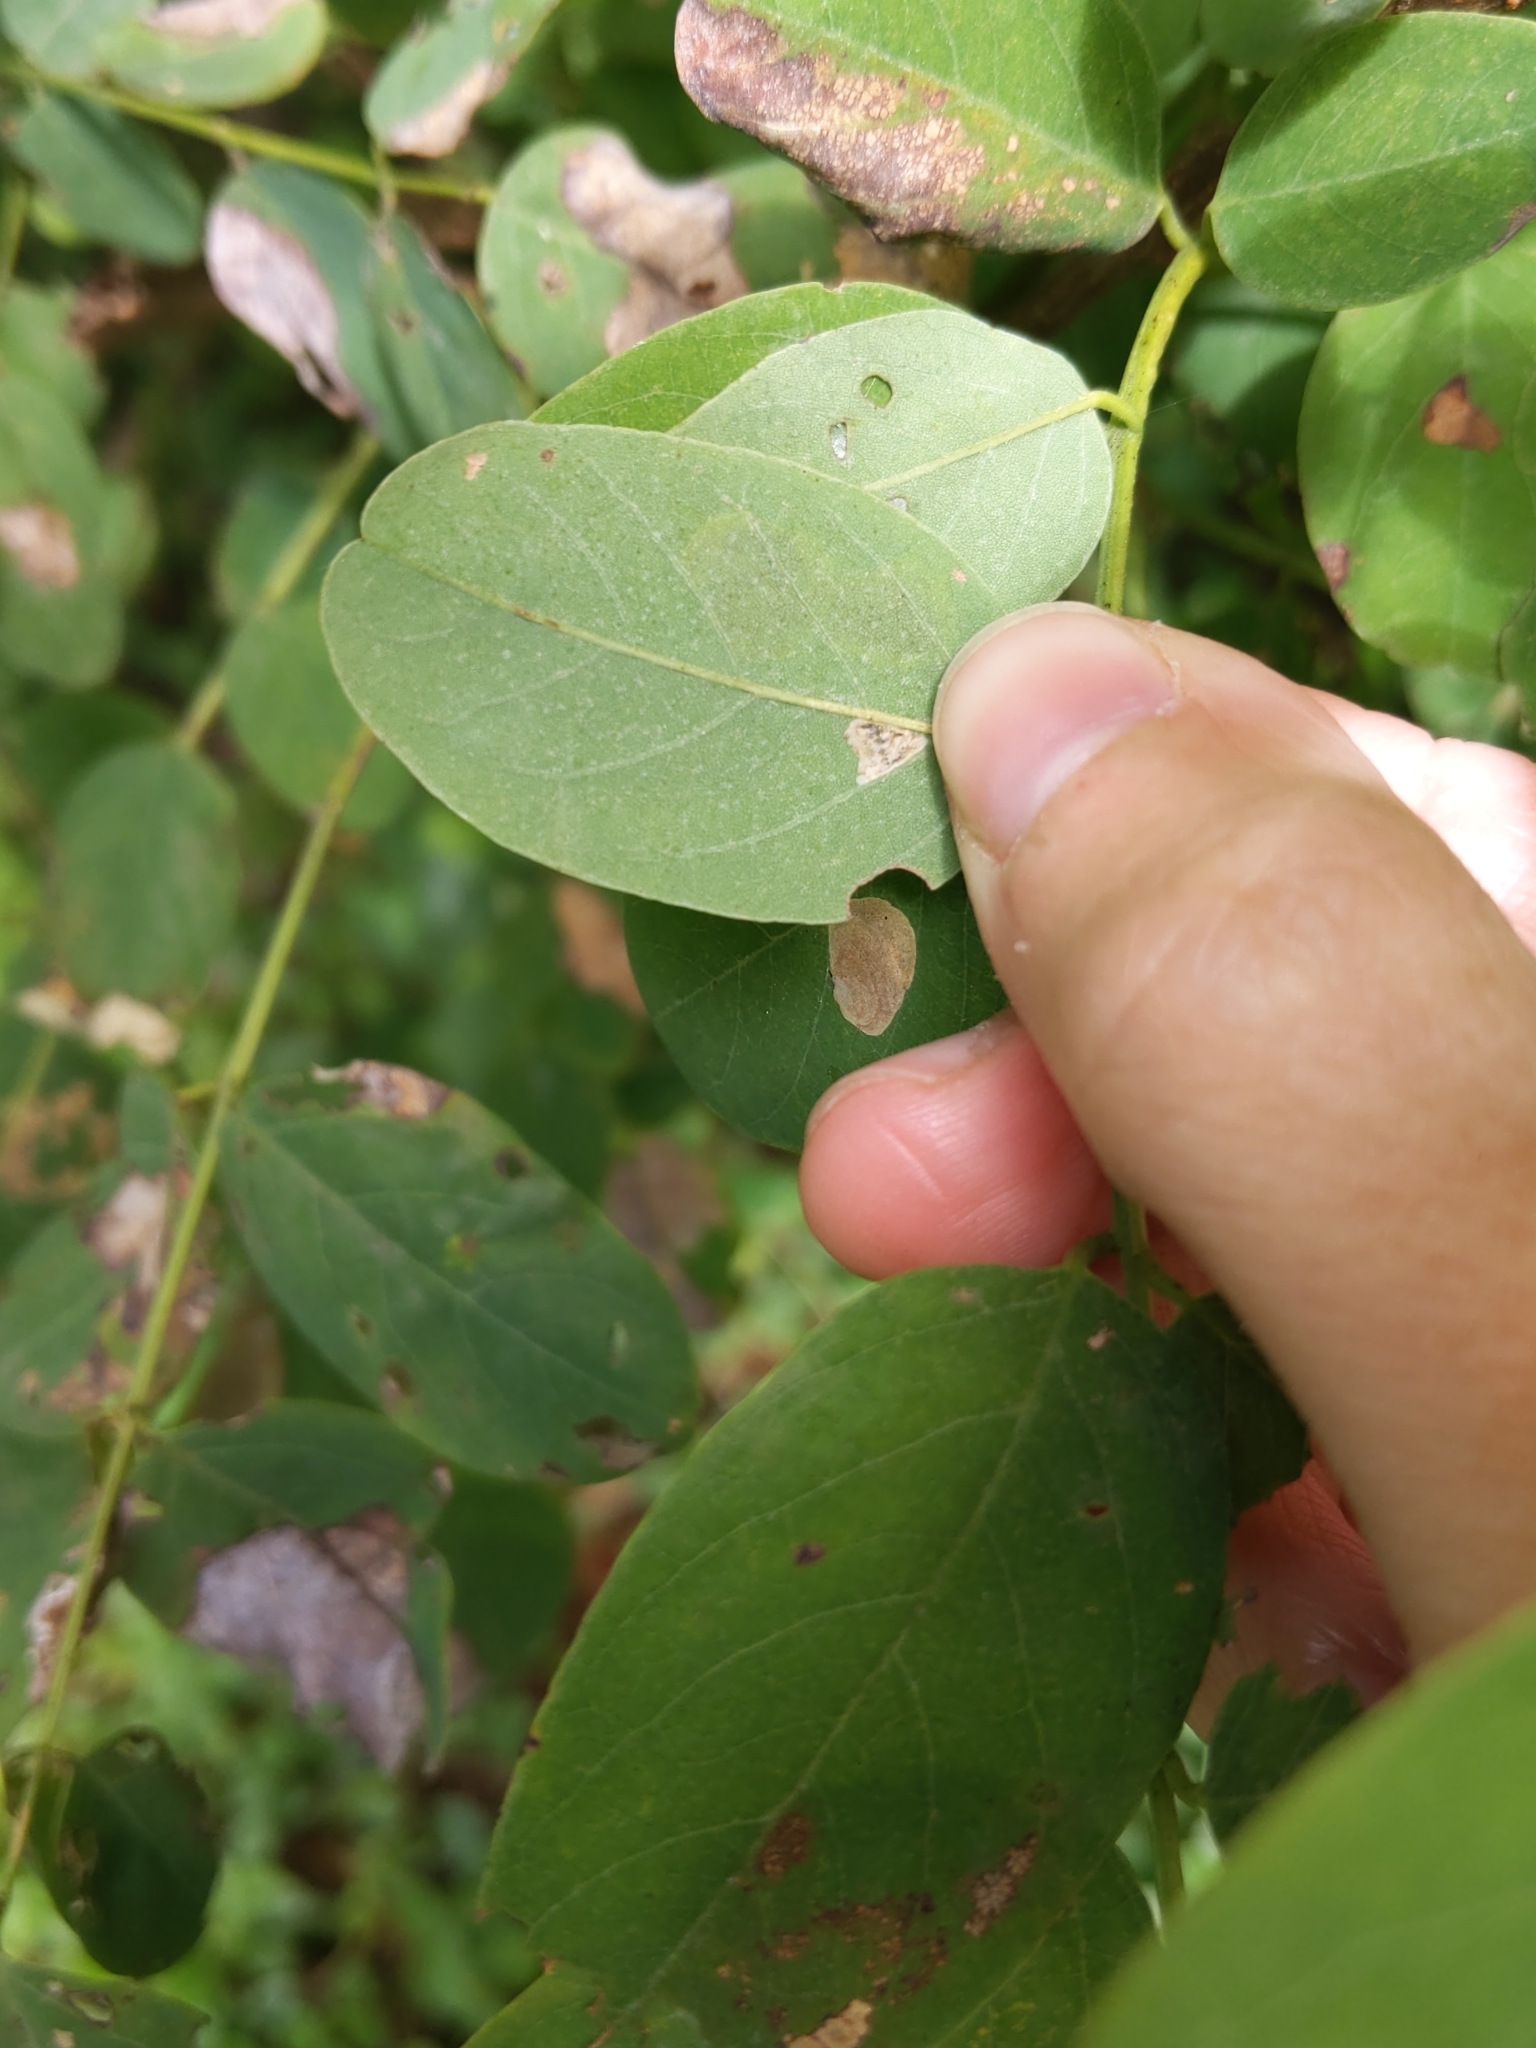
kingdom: Animalia
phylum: Arthropoda
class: Insecta
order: Lepidoptera
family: Gracillariidae
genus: Chrysaster
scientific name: Chrysaster ostensackenella
